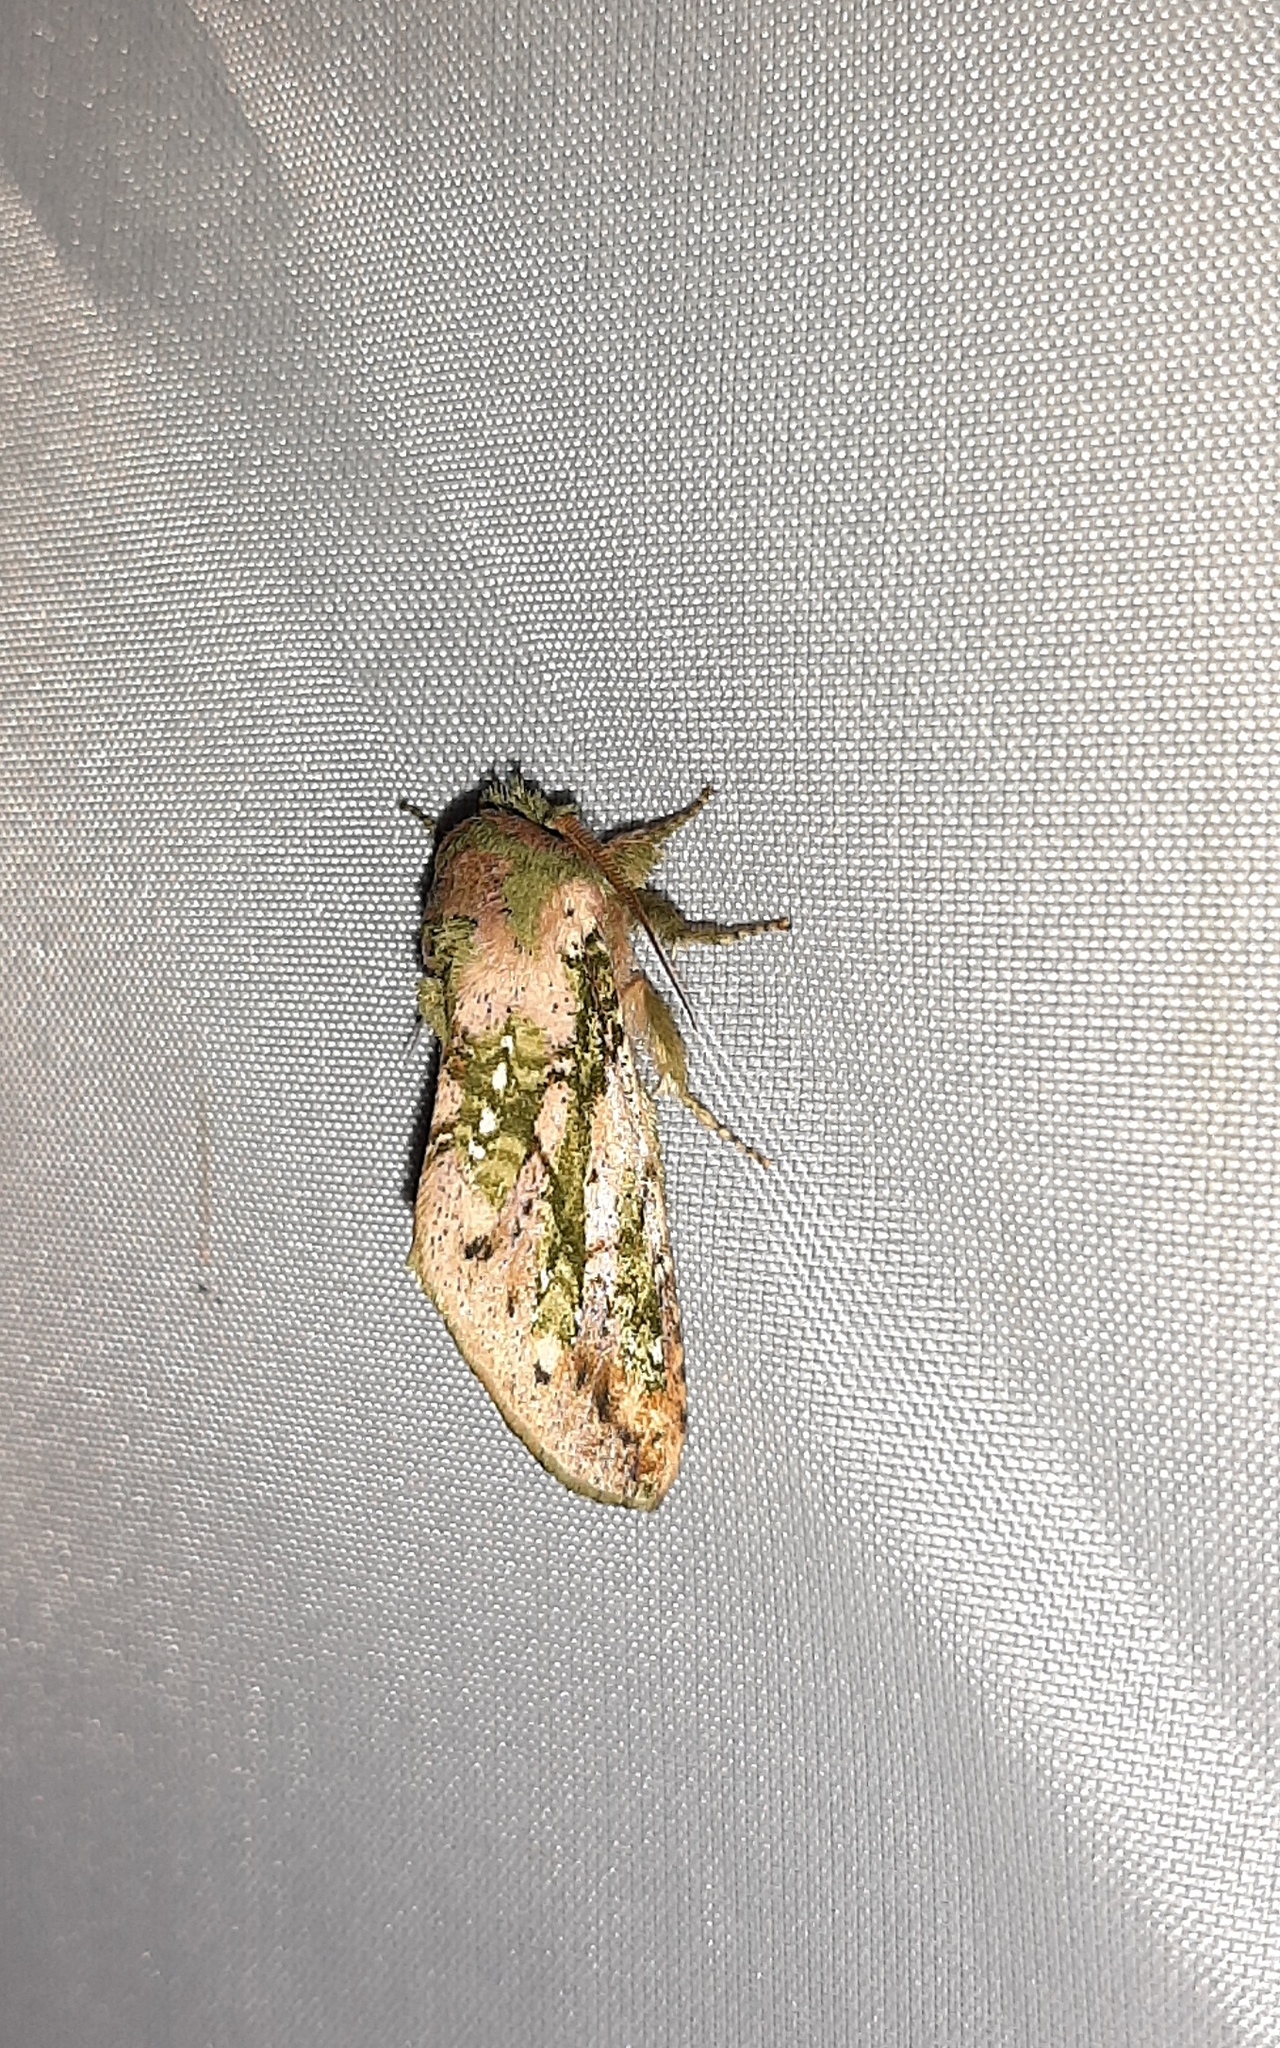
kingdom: Animalia
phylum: Arthropoda
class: Insecta
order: Lepidoptera
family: Notodontidae
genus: Psilacron
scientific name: Psilacron luteovirens
